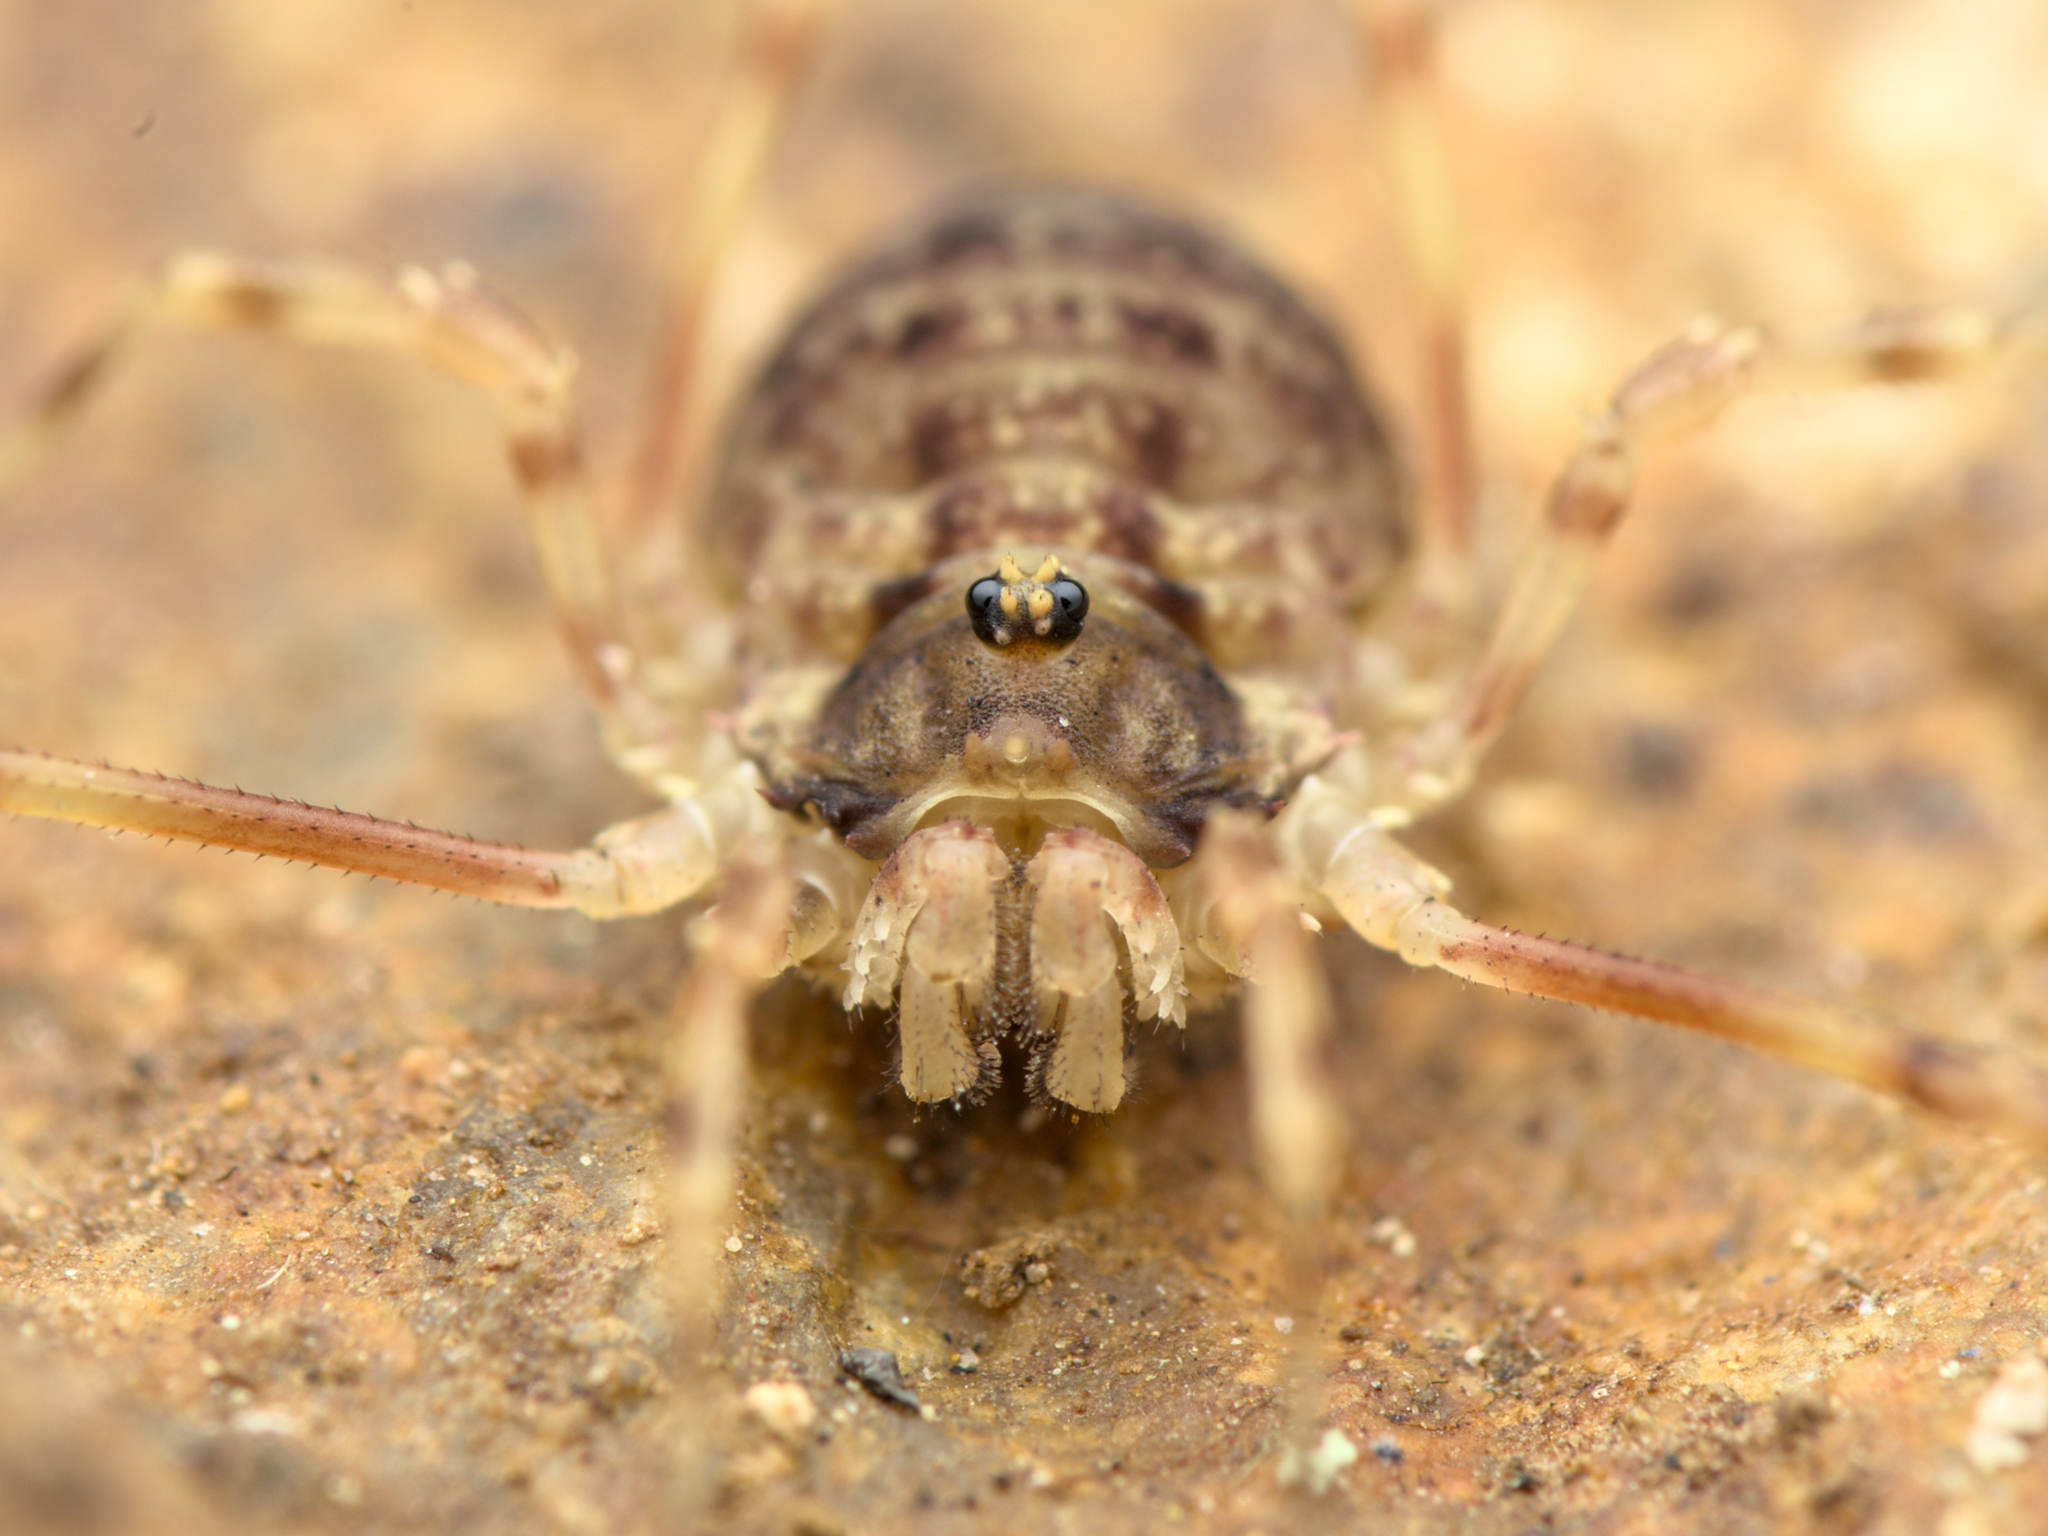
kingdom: Animalia
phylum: Arthropoda
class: Arachnida
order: Opiliones
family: Phalangiidae
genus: Lophopilio
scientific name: Lophopilio palpinalis
